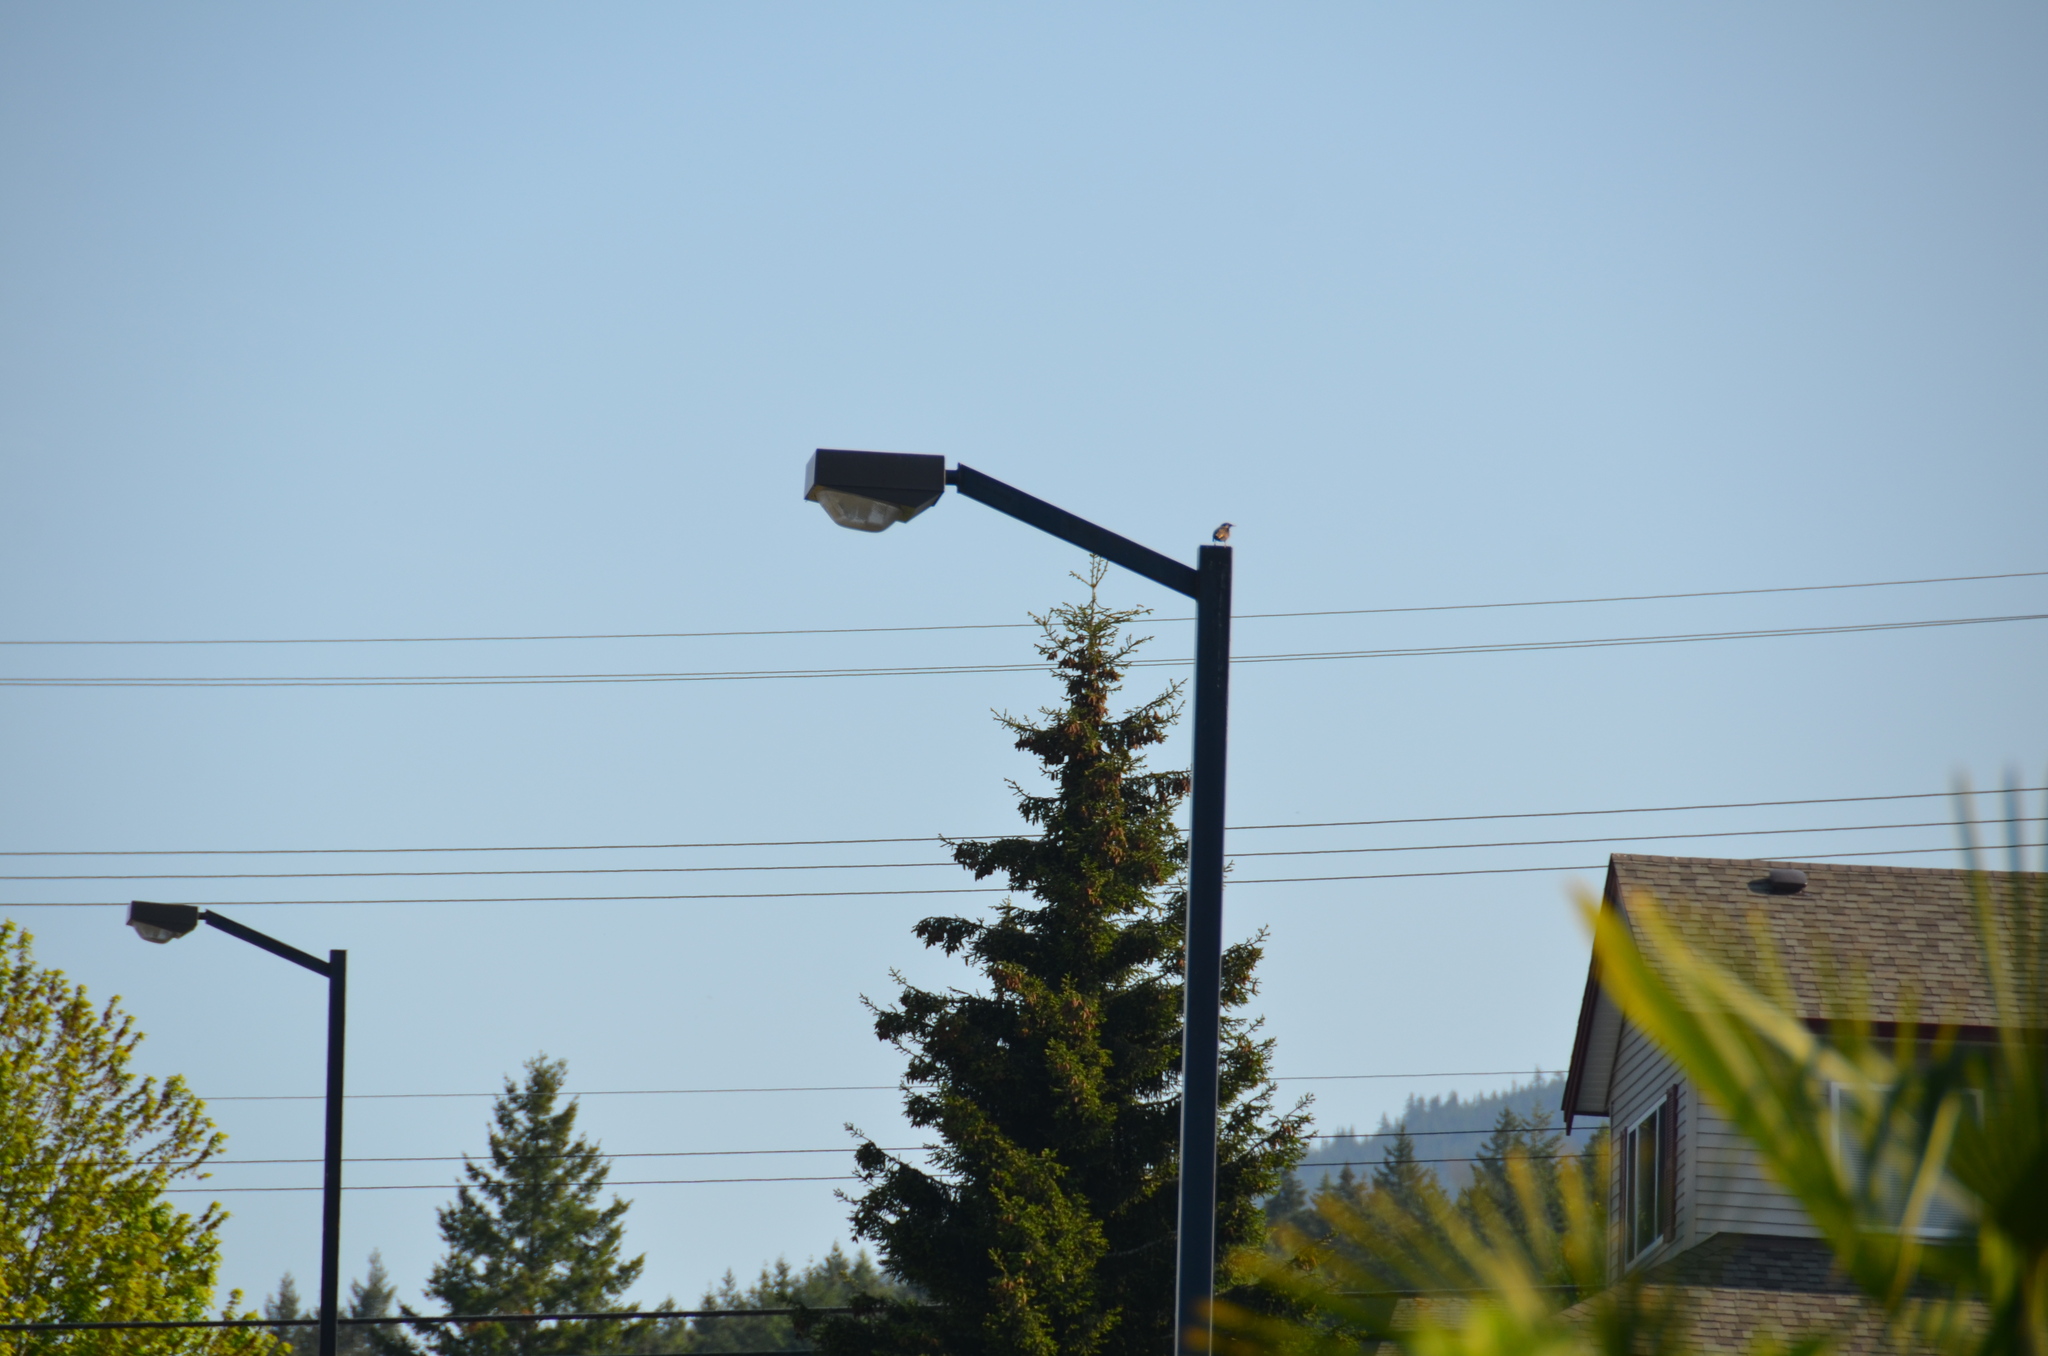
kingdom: Animalia
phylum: Chordata
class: Aves
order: Passeriformes
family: Sturnidae
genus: Sturnus
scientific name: Sturnus vulgaris
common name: Common starling
